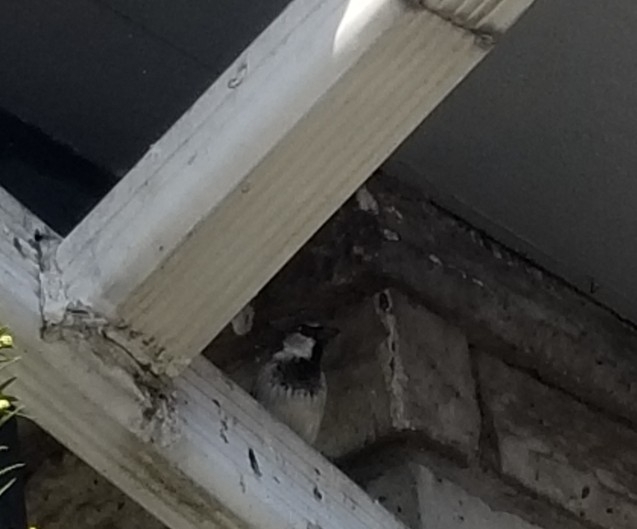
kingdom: Animalia
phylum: Chordata
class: Aves
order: Passeriformes
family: Passeridae
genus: Passer
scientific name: Passer domesticus
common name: House sparrow
